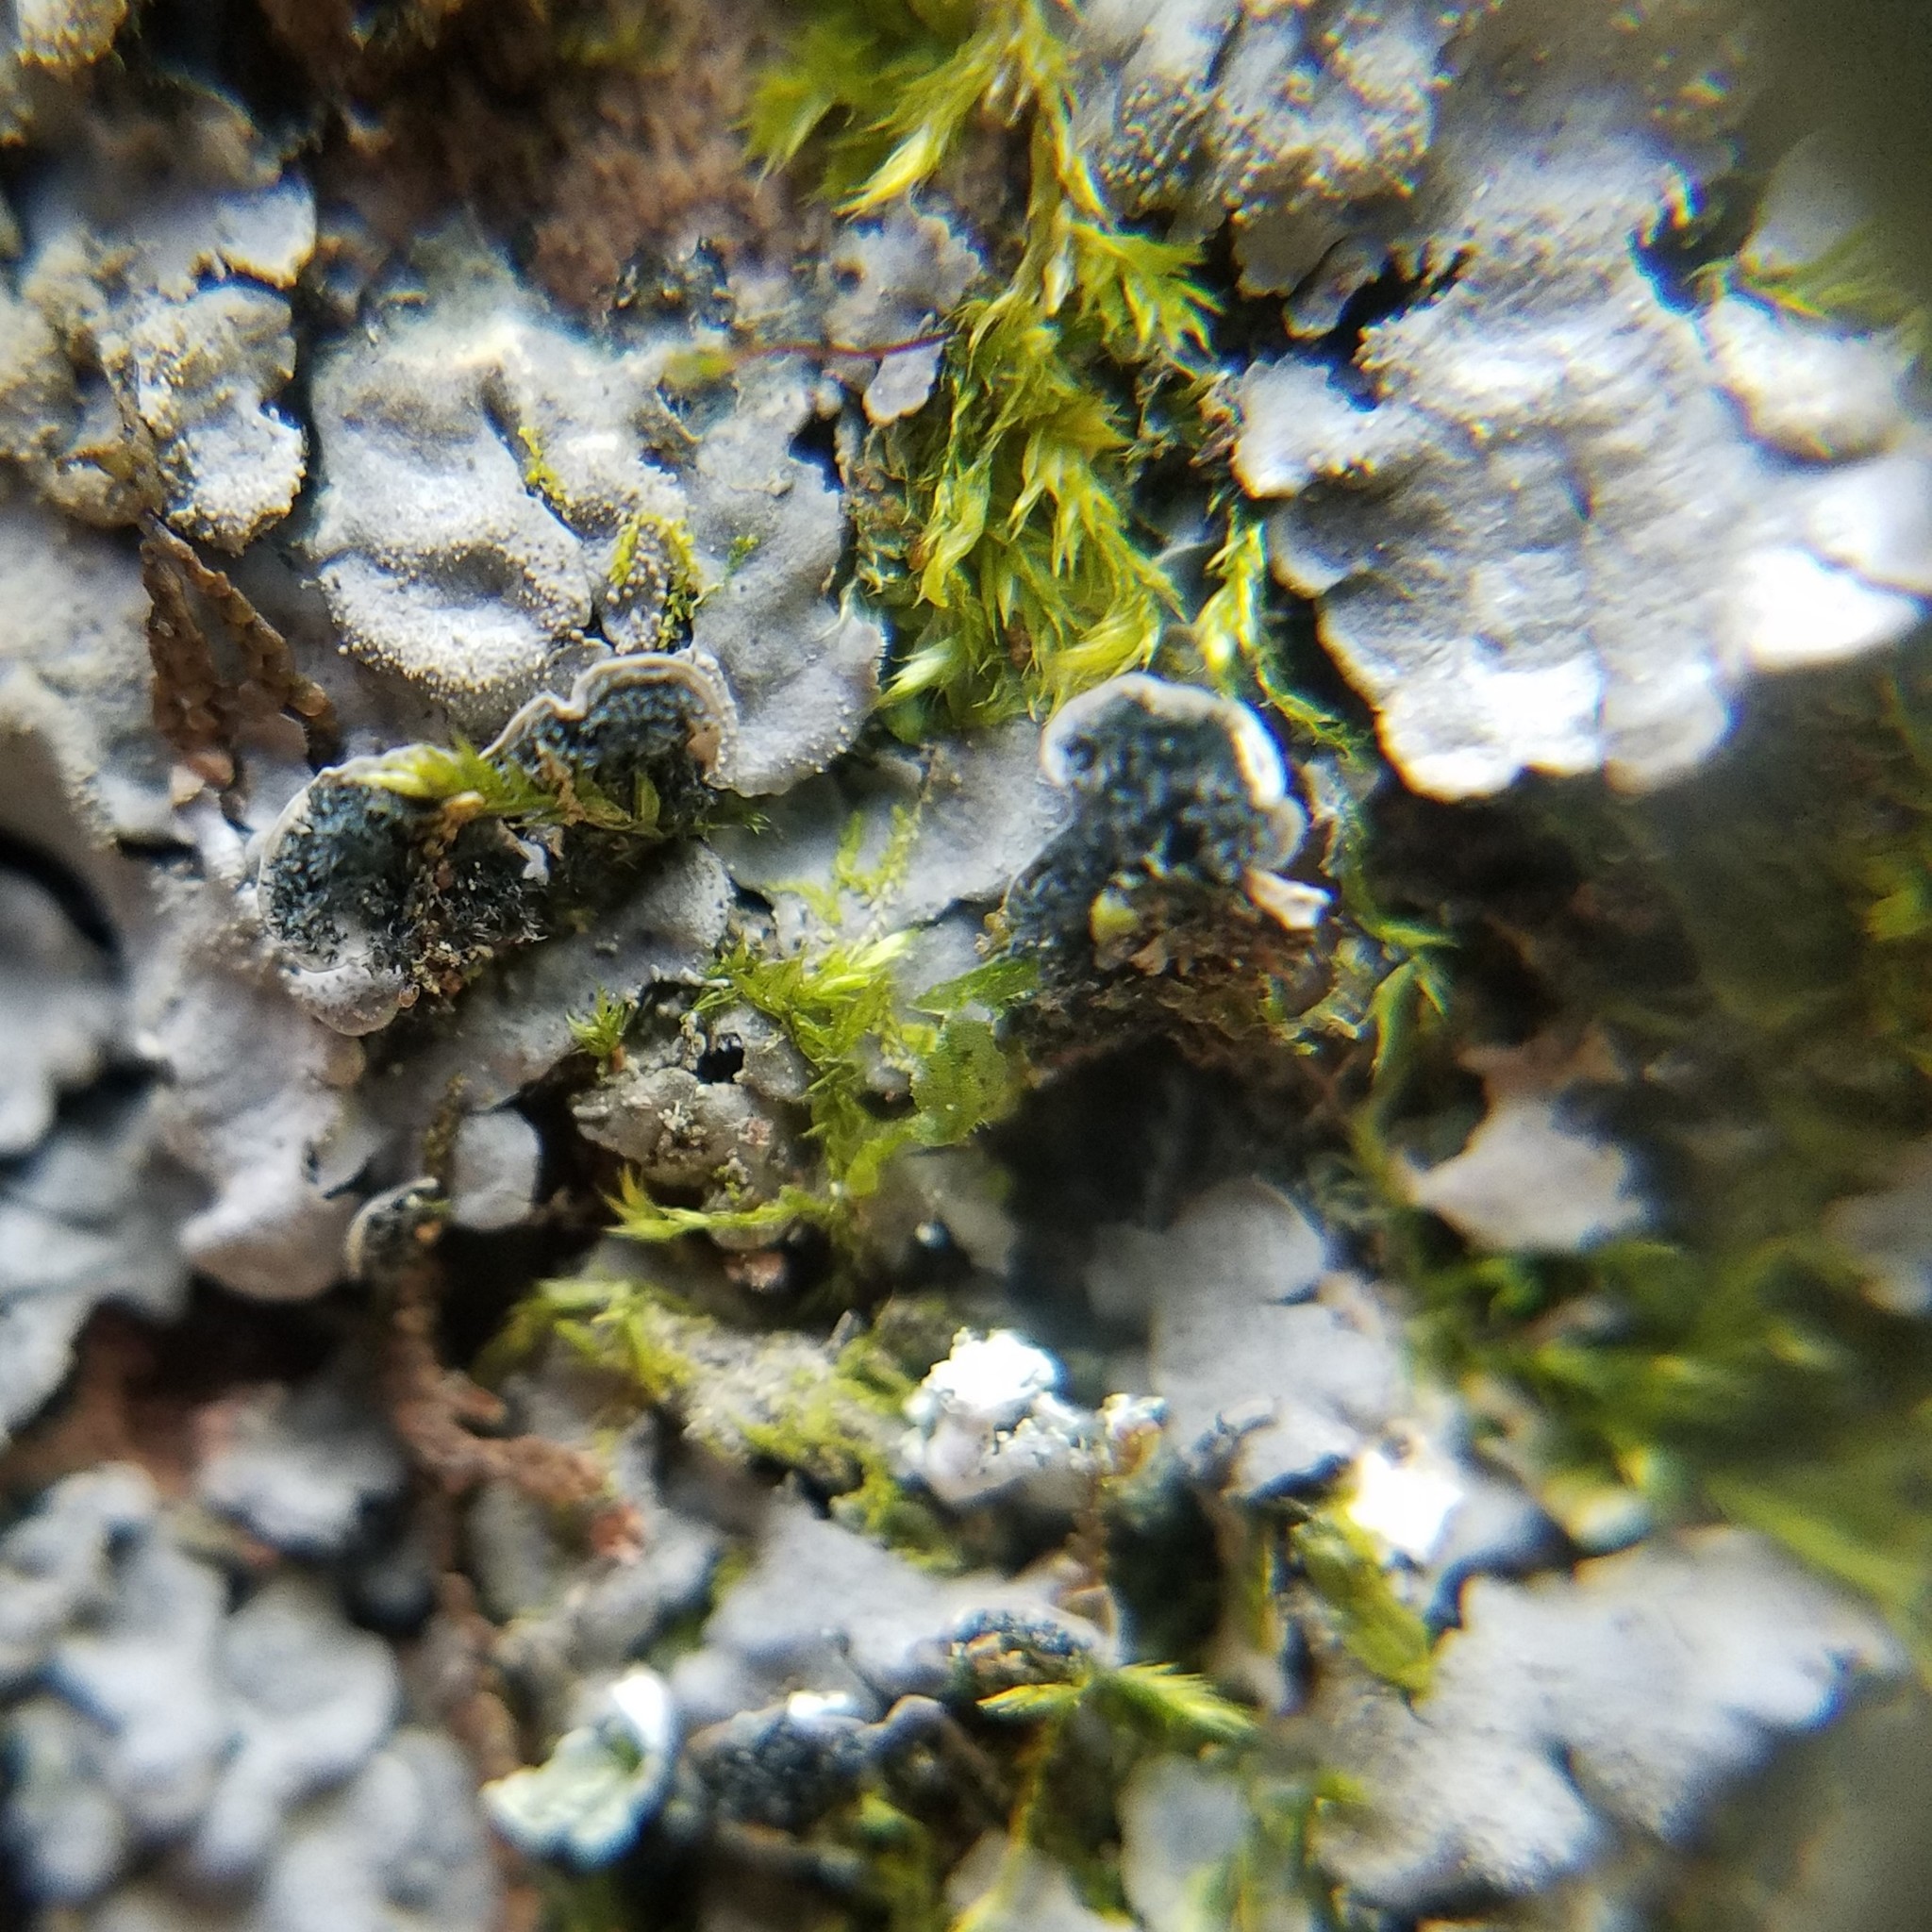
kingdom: Fungi
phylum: Ascomycota
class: Lecanoromycetes
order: Peltigerales
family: Coccocarpiaceae
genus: Coccocarpia
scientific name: Coccocarpia palmicola
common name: Salted shell lichen
